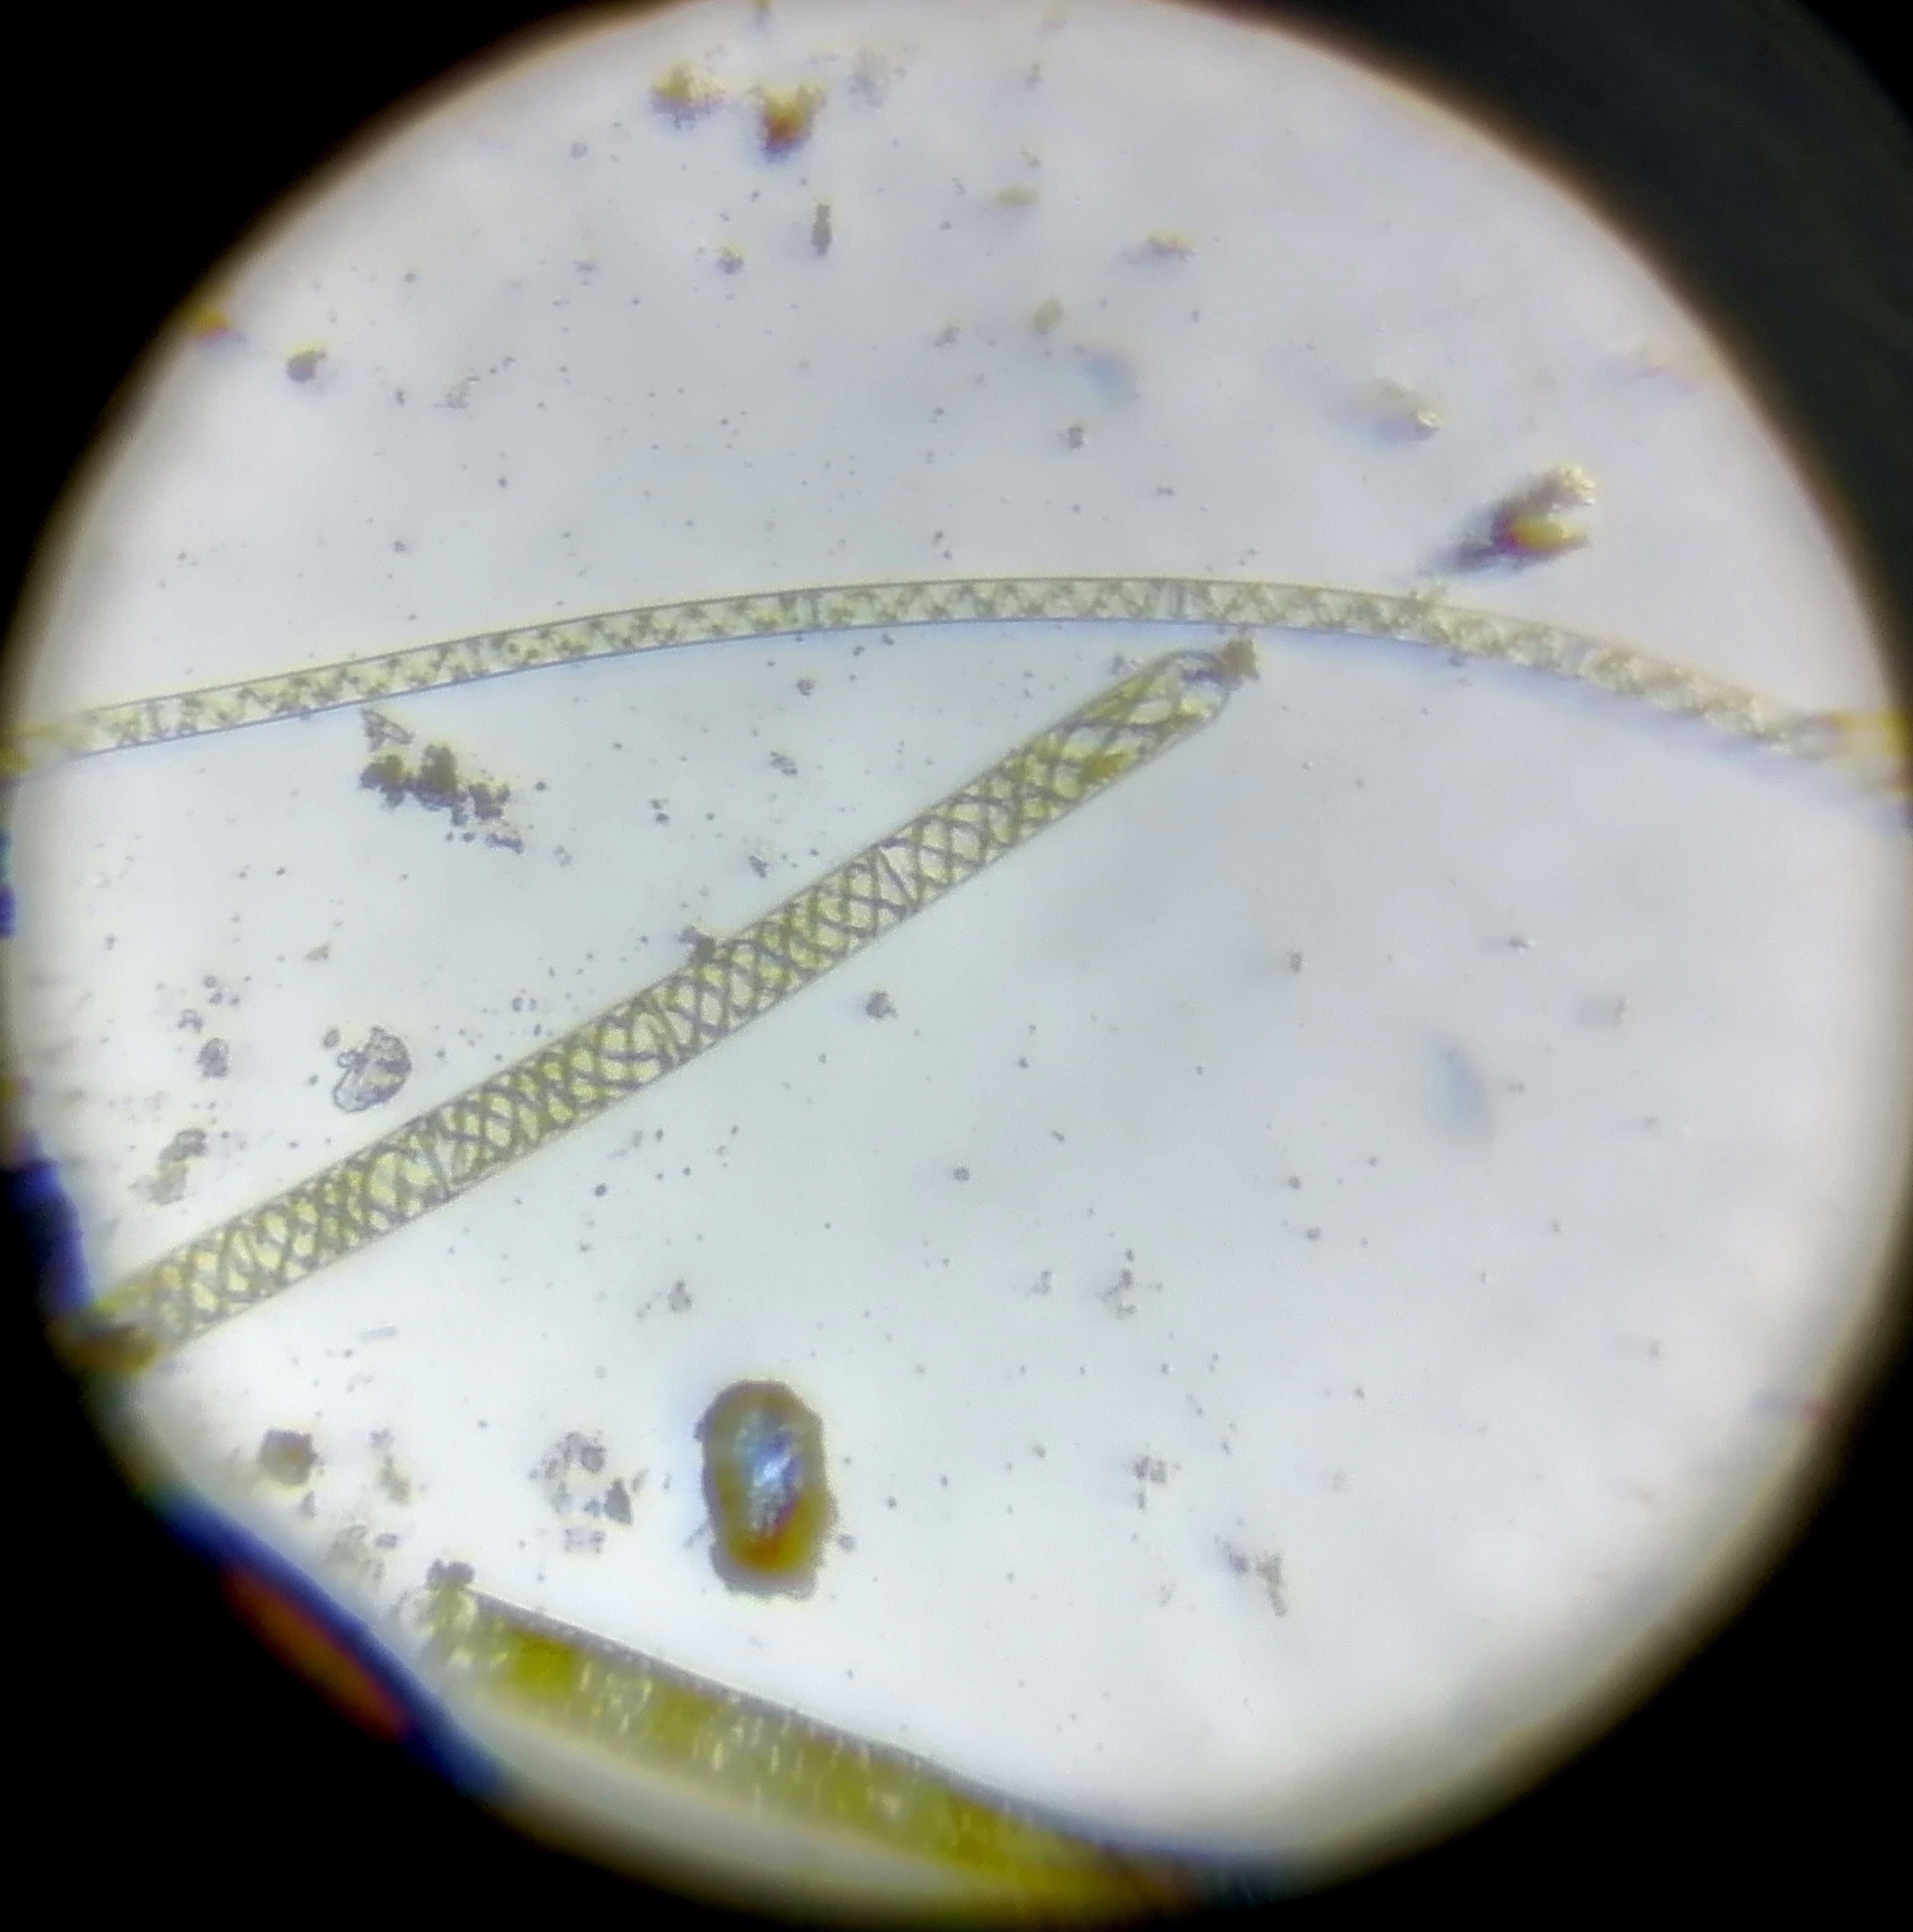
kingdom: Plantae
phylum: Charophyta
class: Zygnematophyceae
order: Zygnematales
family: Zygnemataceae
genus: Spirogyra
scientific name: Spirogyra
